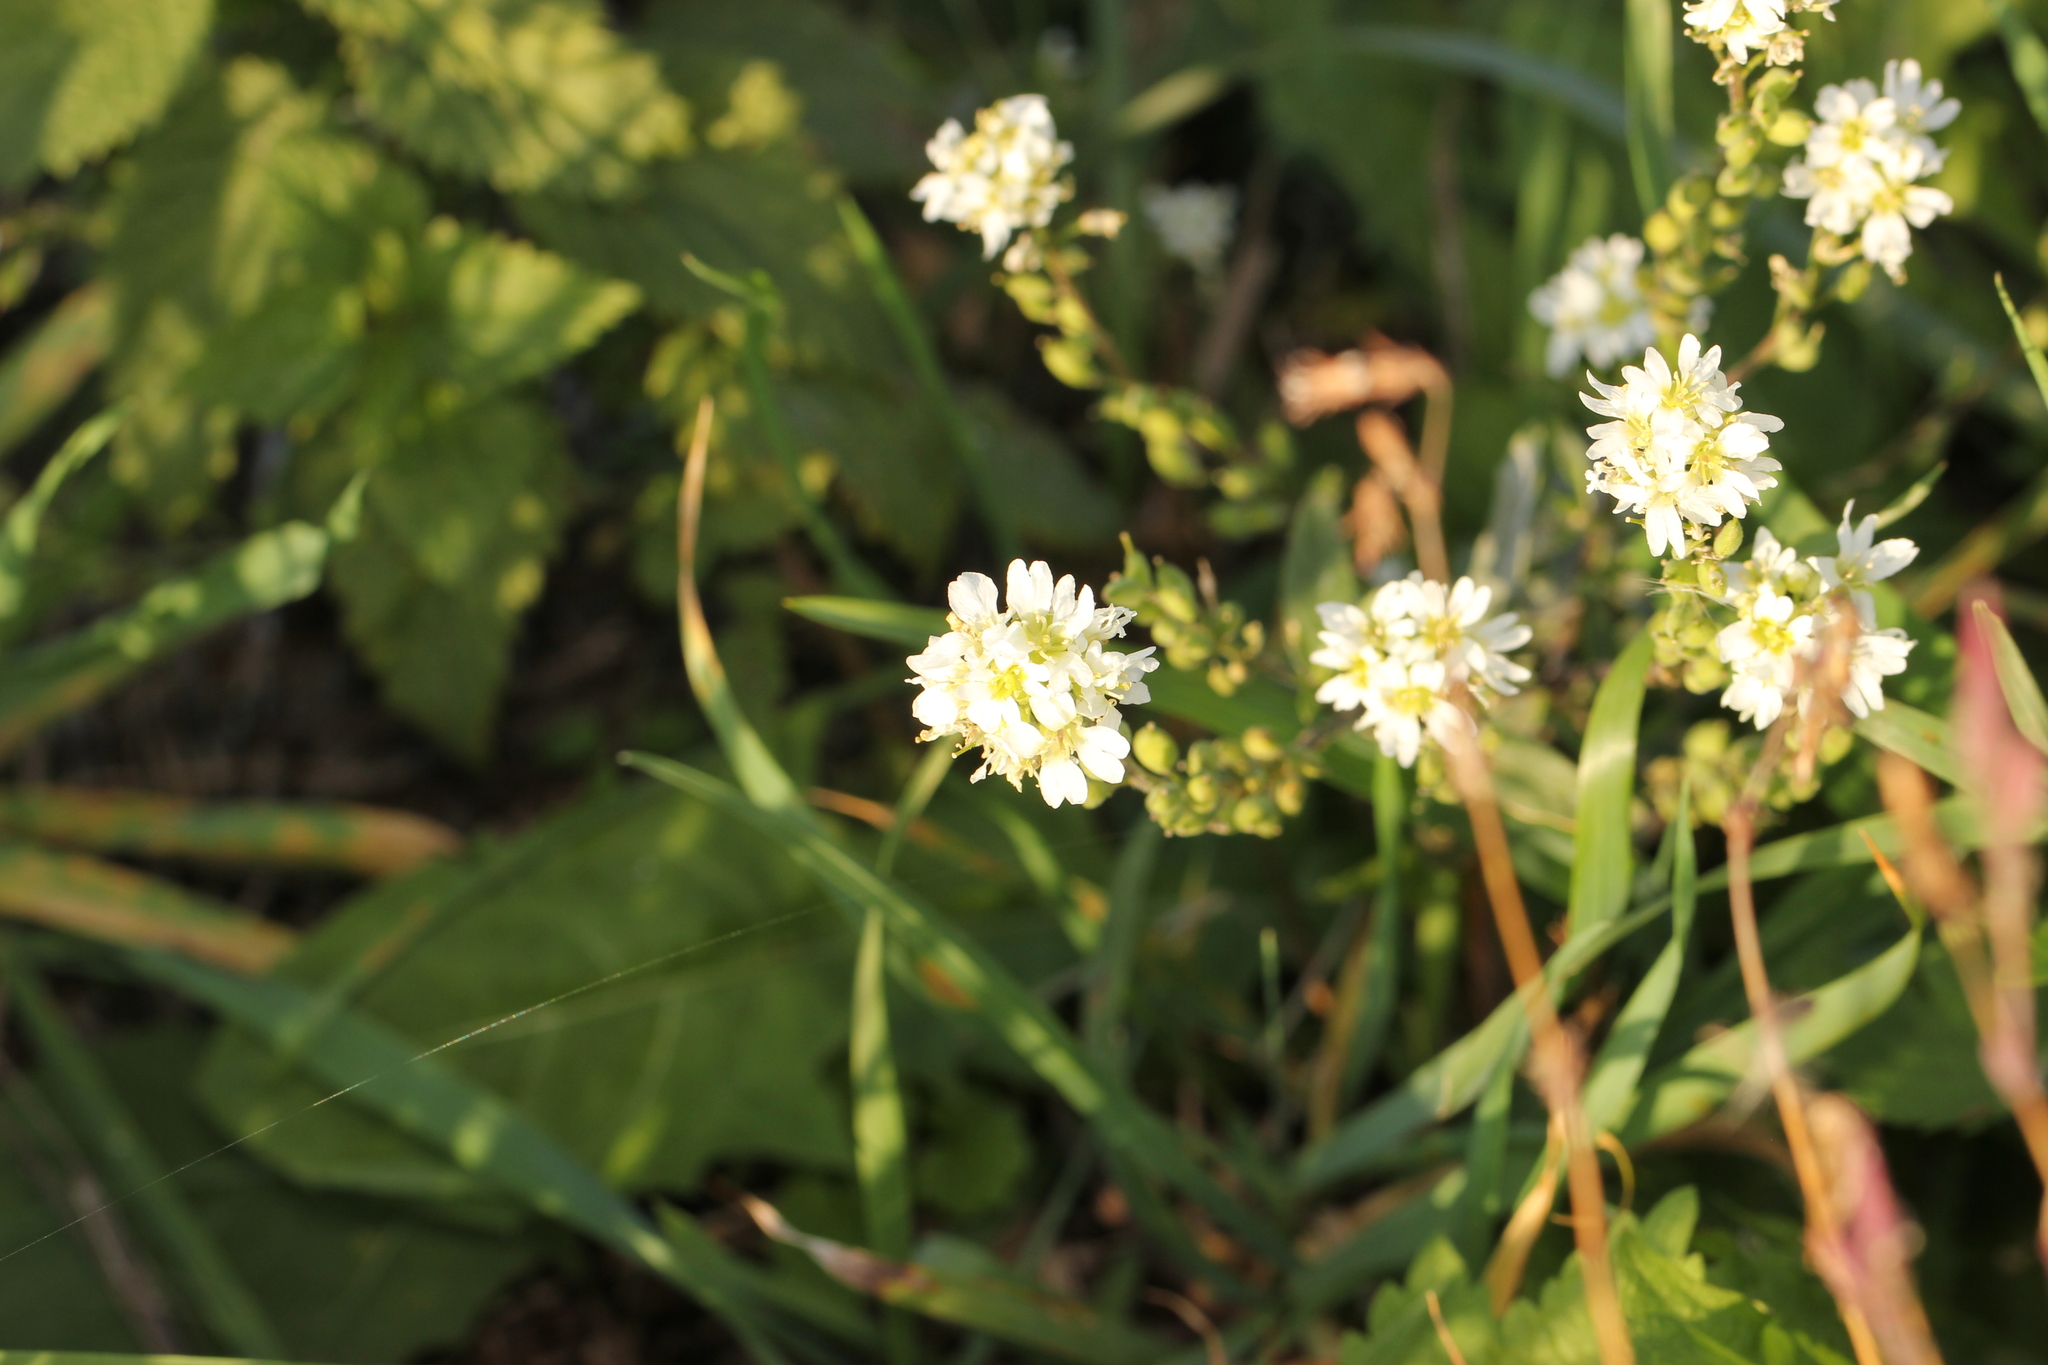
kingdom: Plantae
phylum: Tracheophyta
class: Magnoliopsida
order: Brassicales
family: Brassicaceae
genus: Berteroa
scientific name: Berteroa incana
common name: Hoary alison
